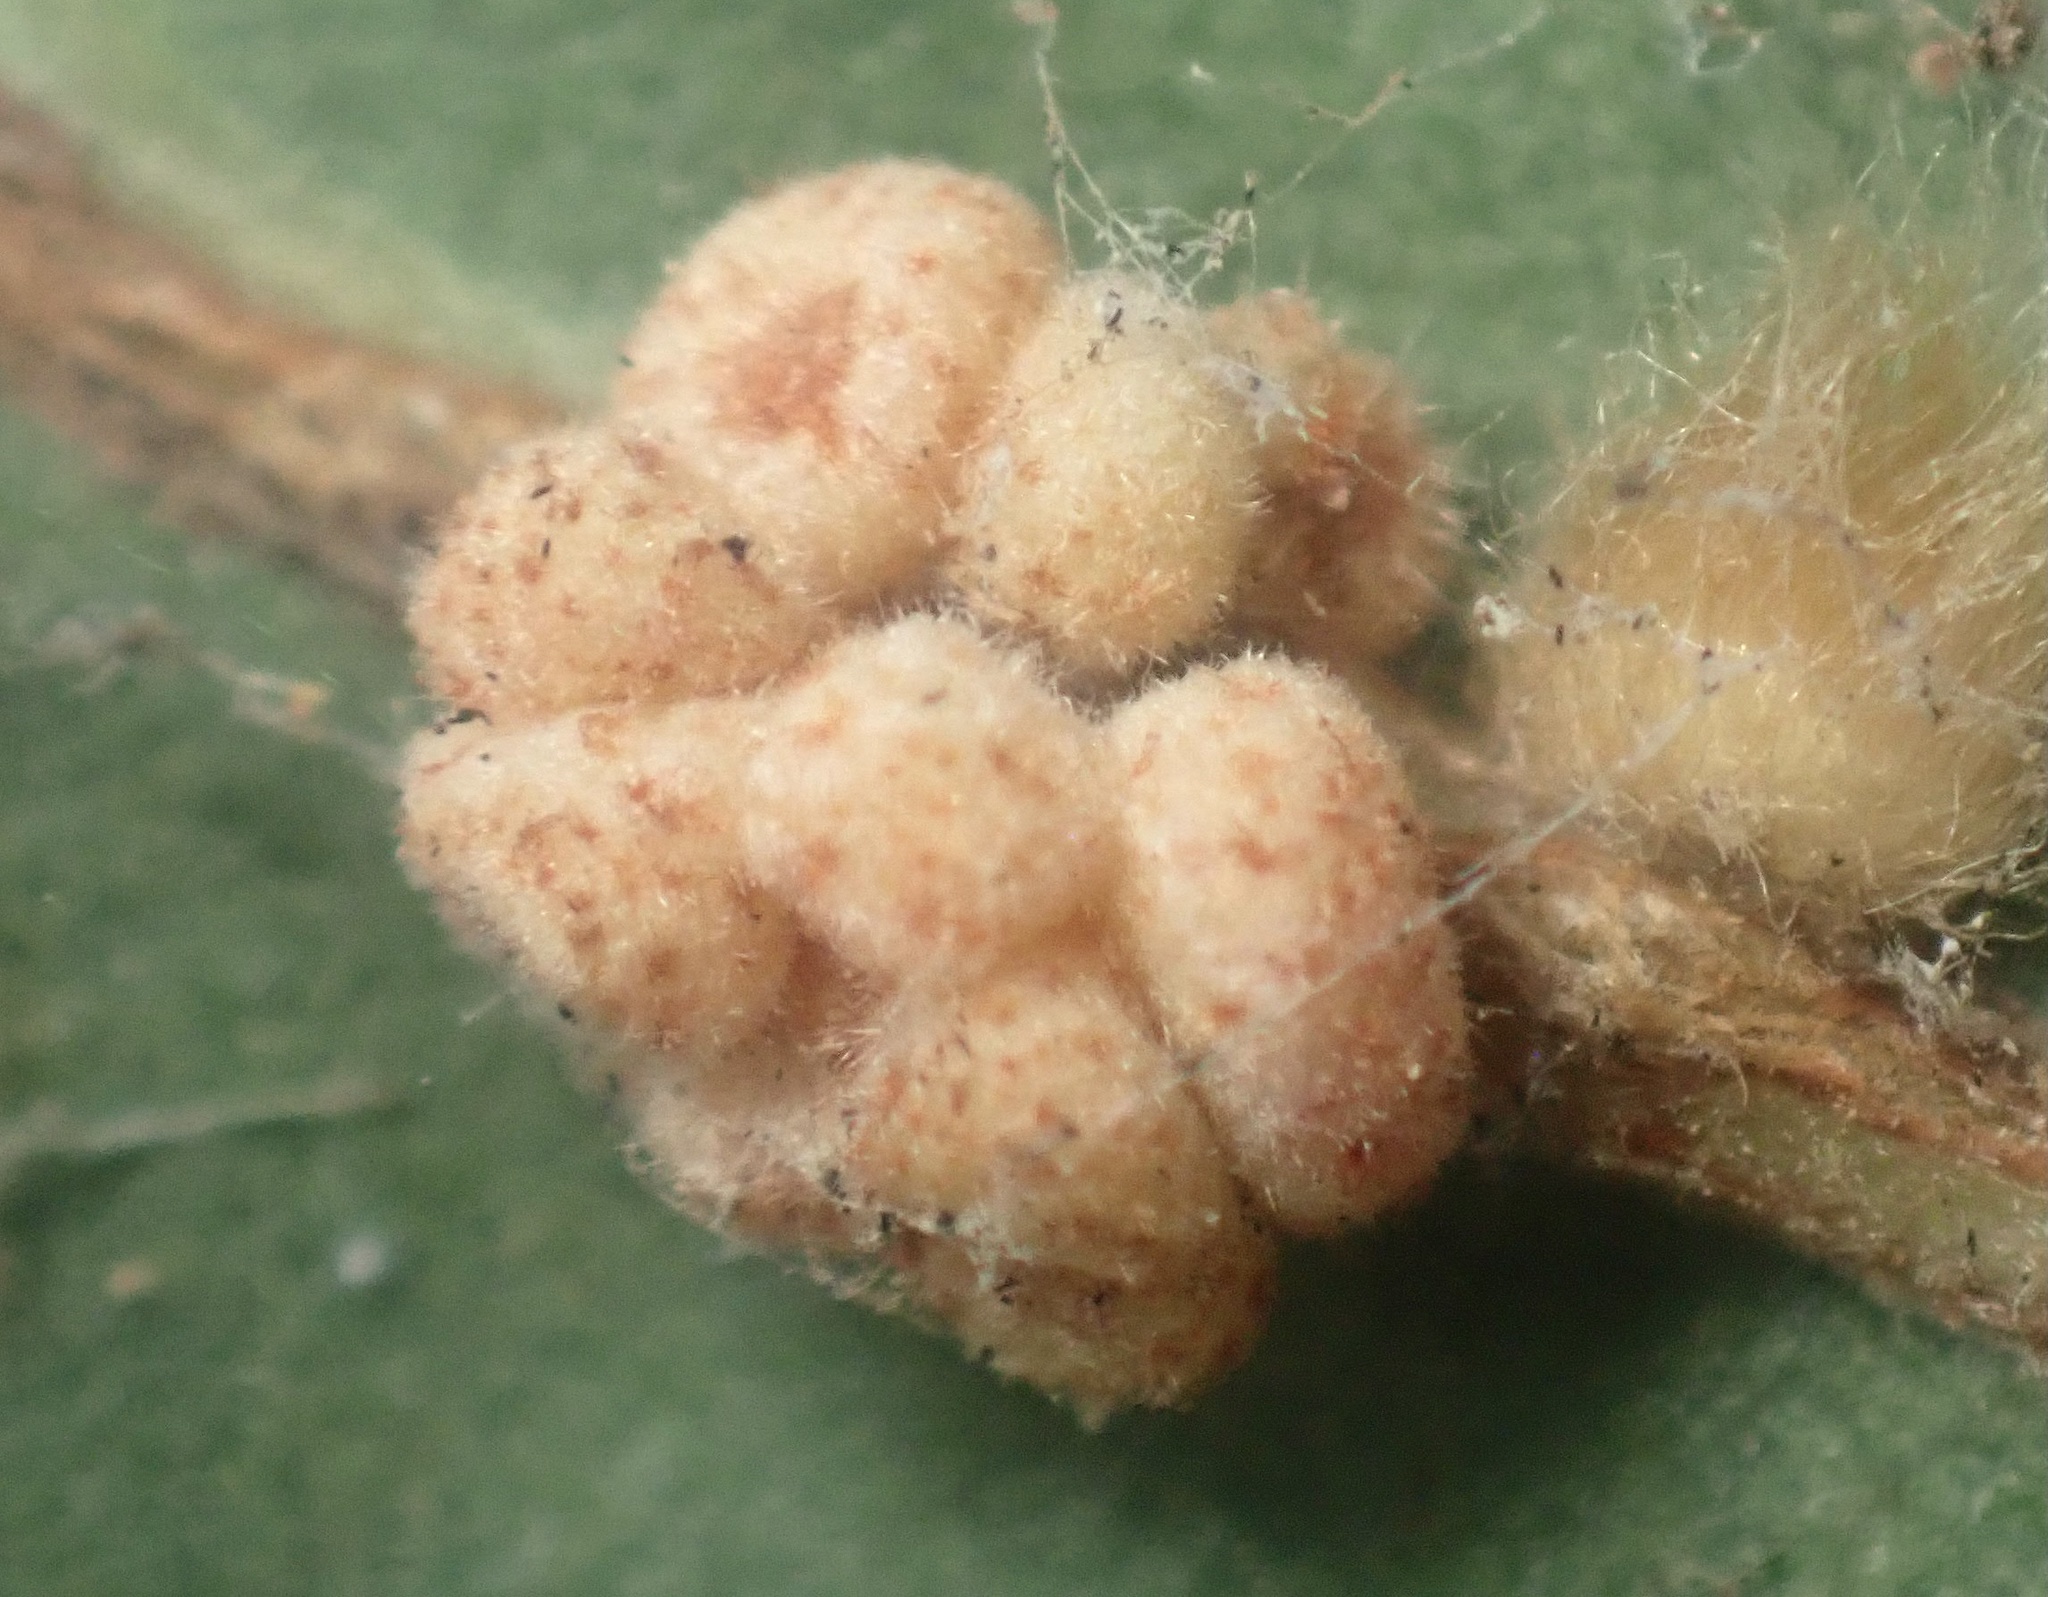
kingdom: Animalia
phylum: Arthropoda
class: Insecta
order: Hymenoptera
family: Cynipidae
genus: Andricus
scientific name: Andricus
